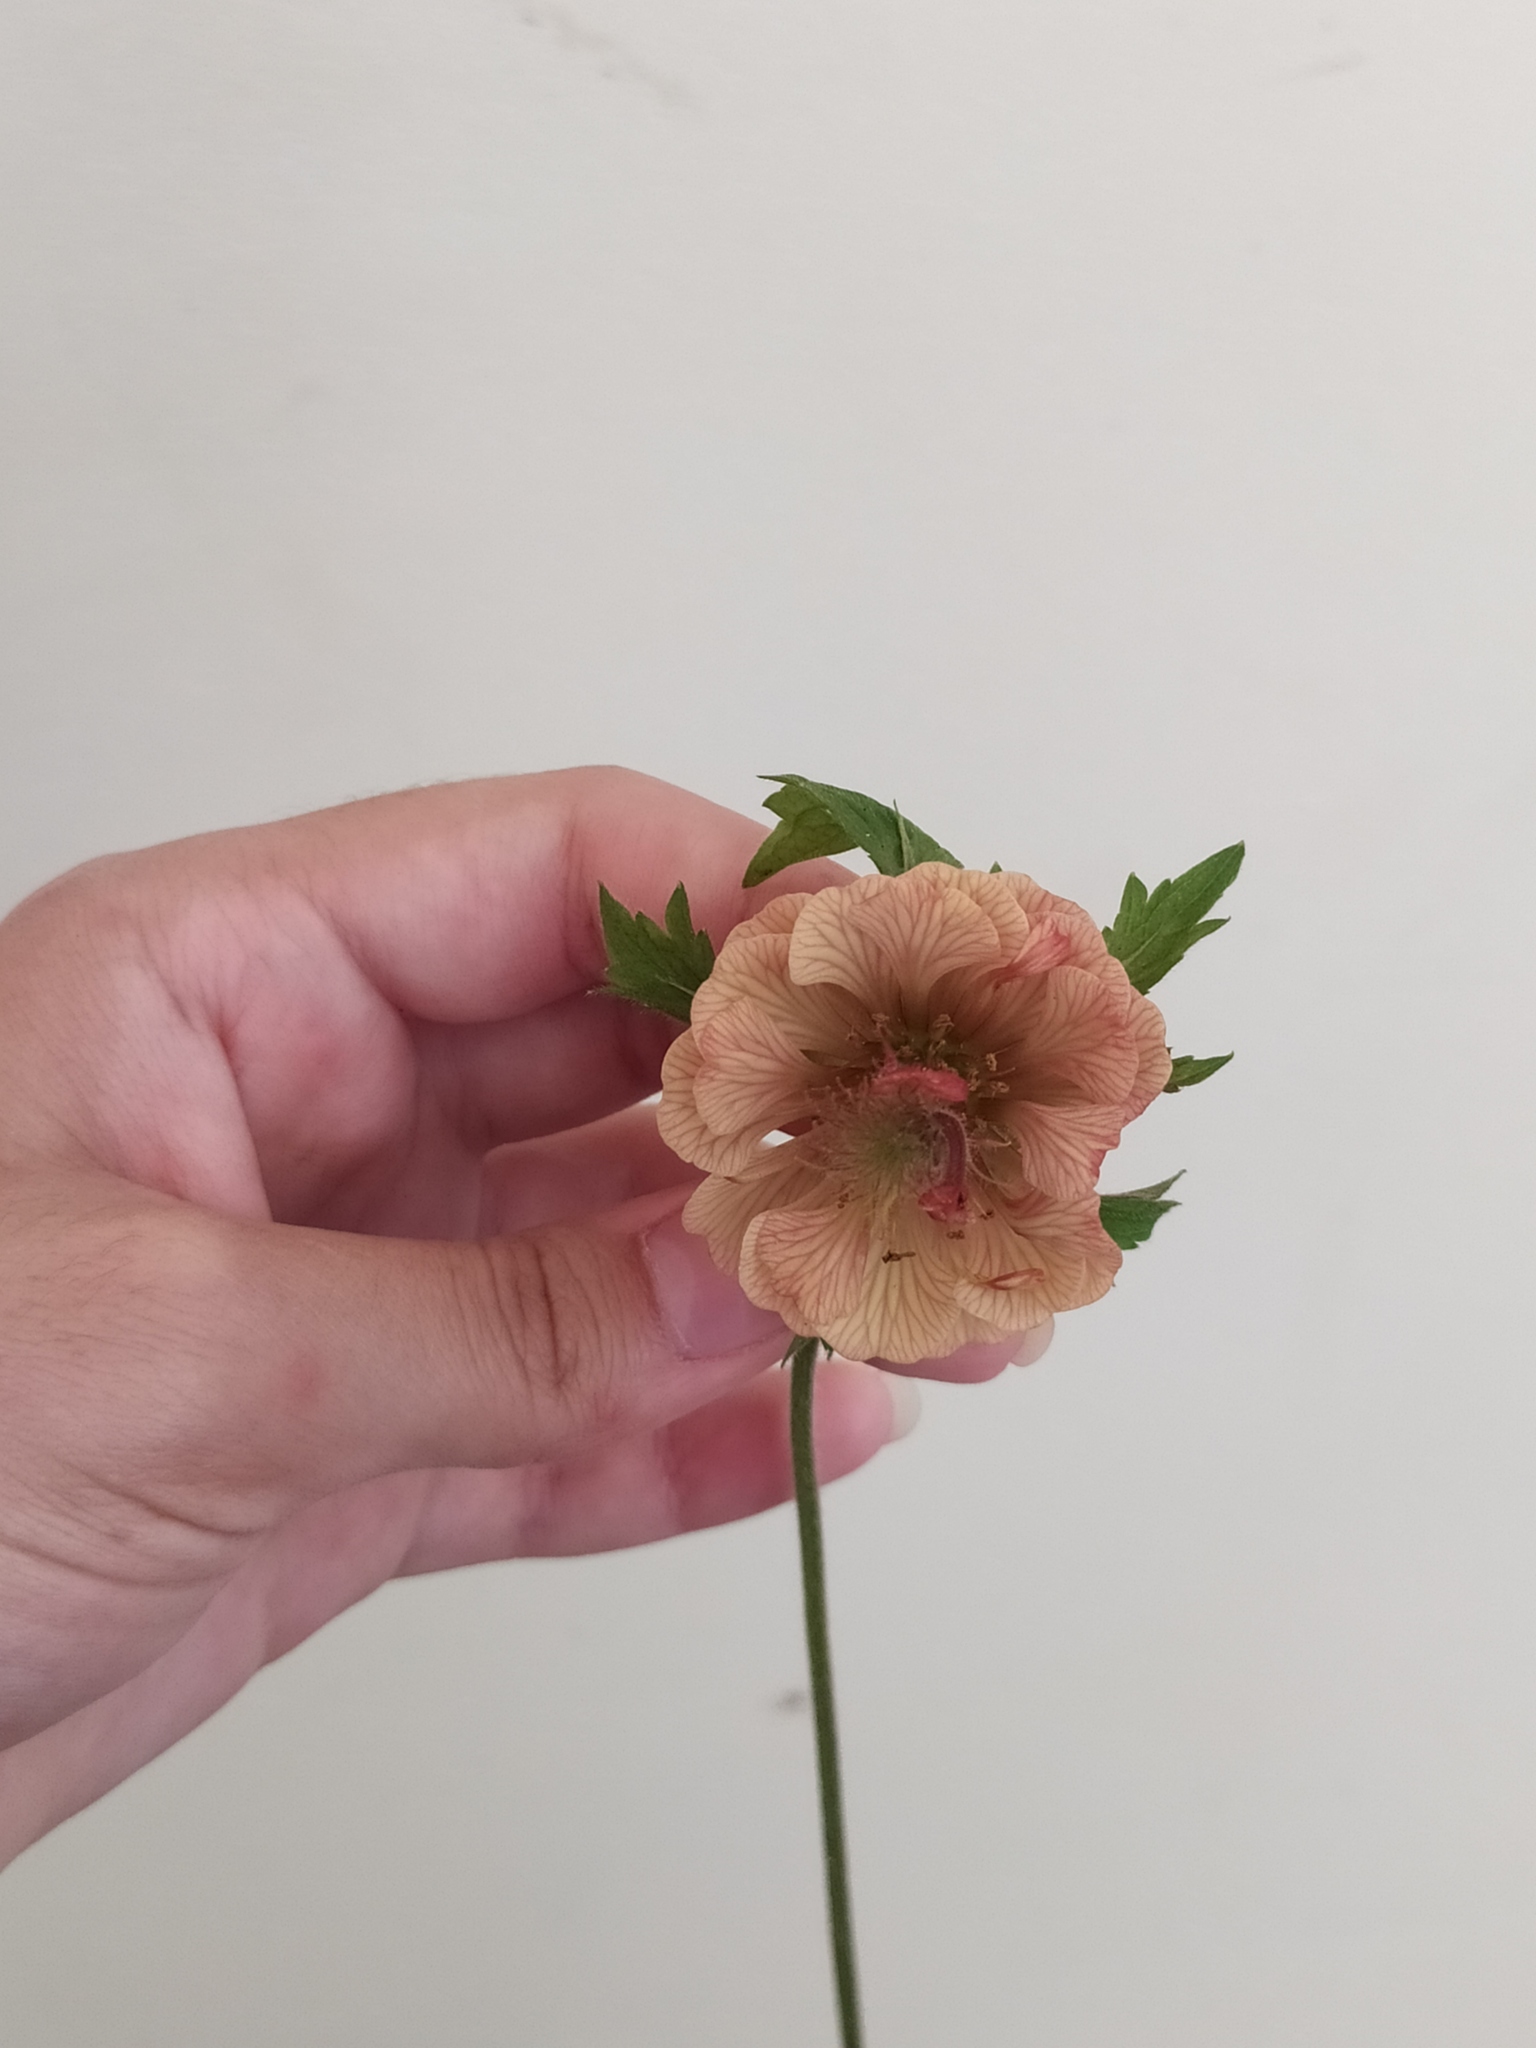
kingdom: Plantae
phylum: Tracheophyta
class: Magnoliopsida
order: Rosales
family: Rosaceae
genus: Geum
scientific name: Geum rivale
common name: Water avens
